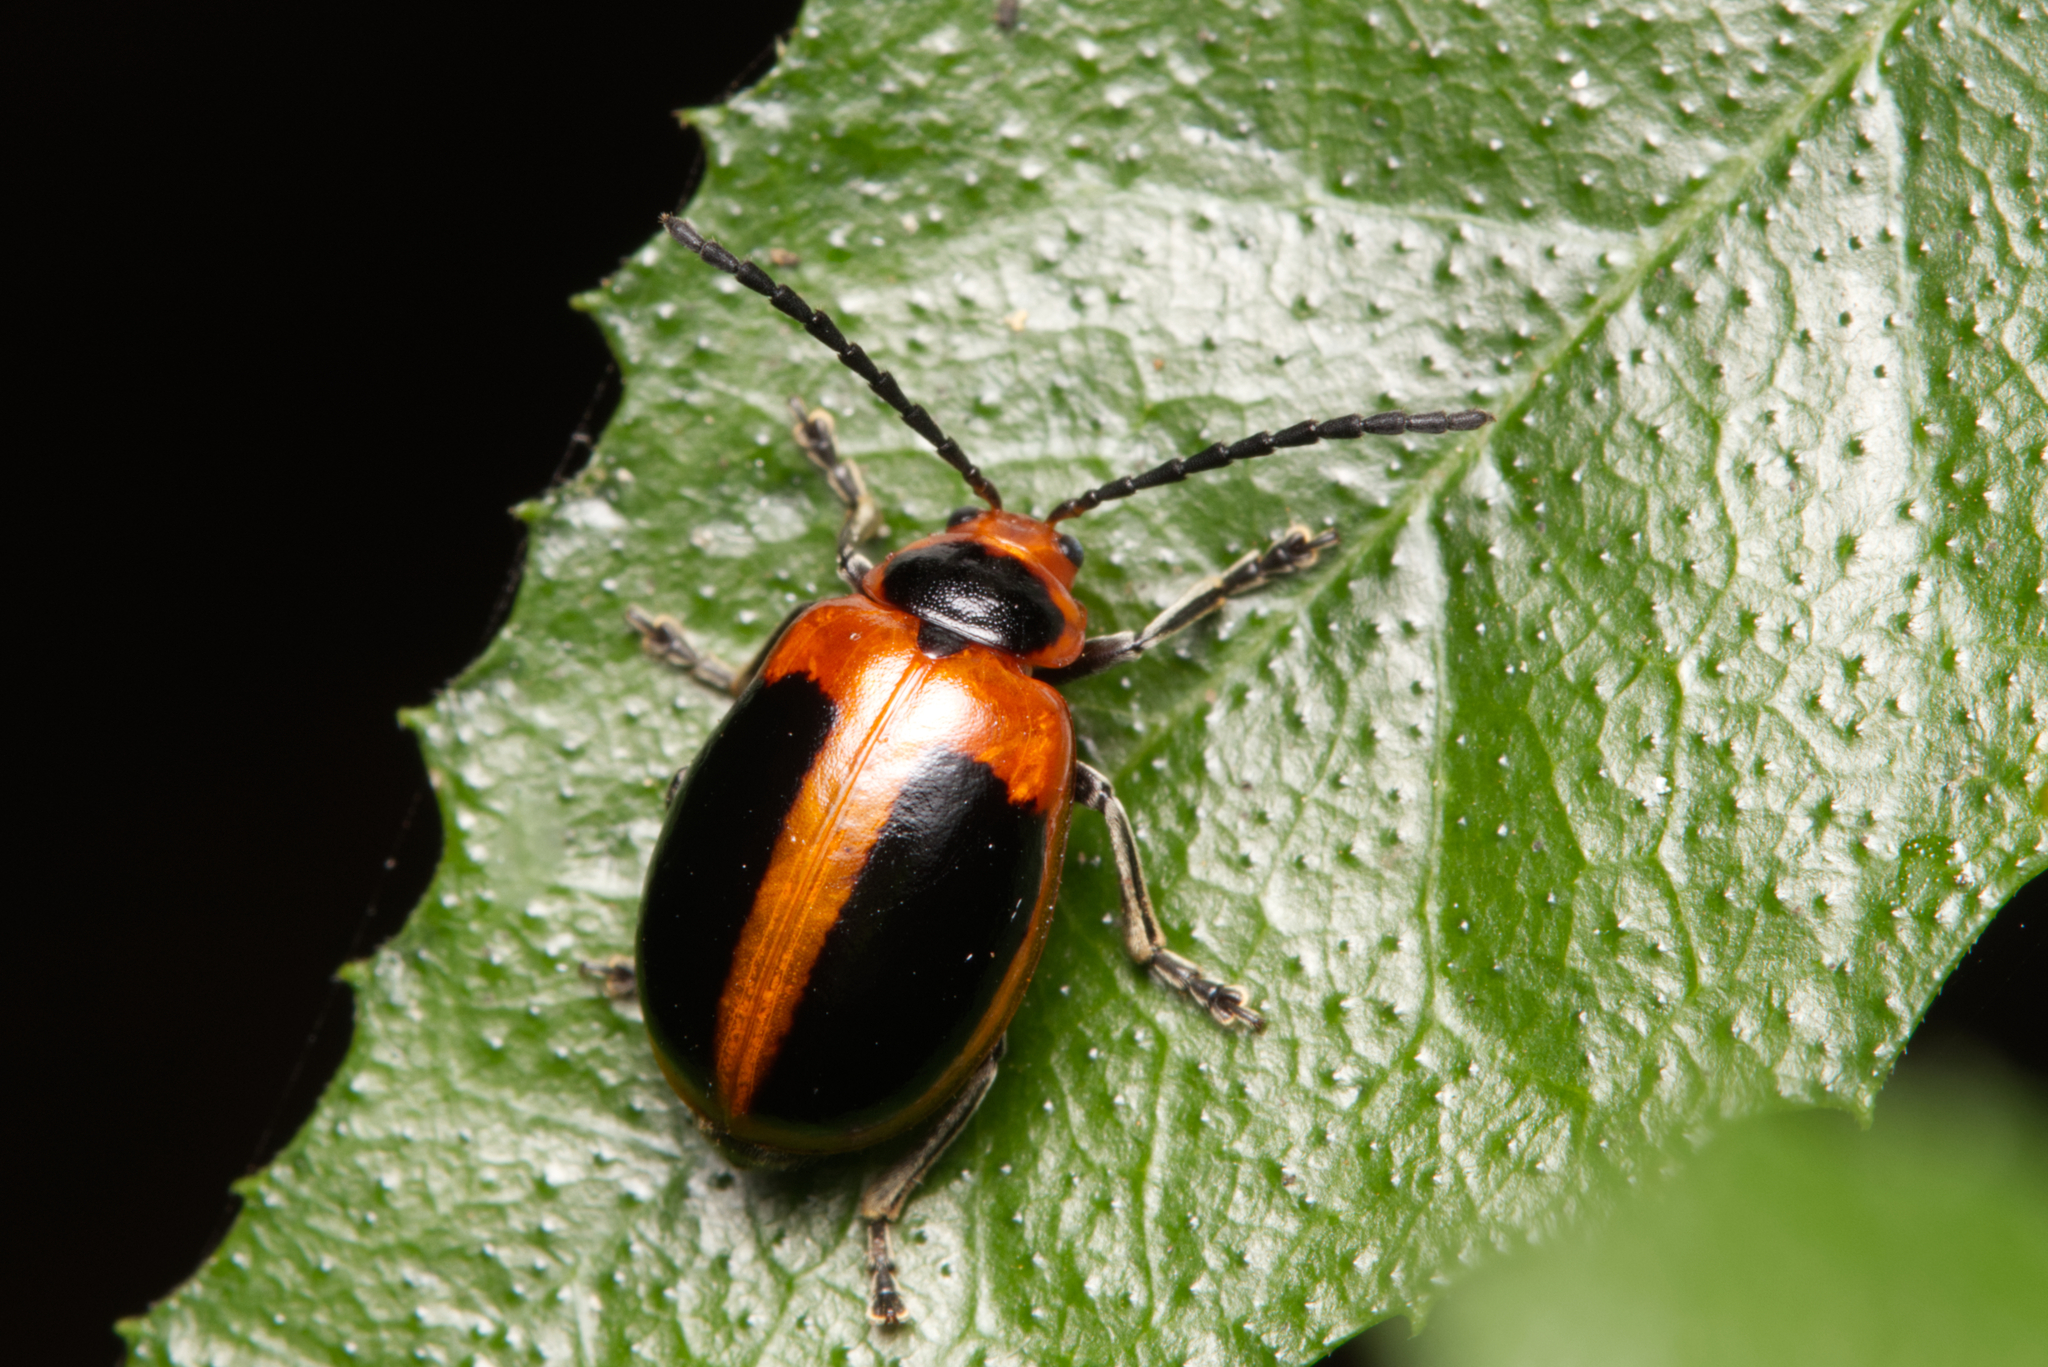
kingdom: Animalia
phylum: Arthropoda
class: Insecta
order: Coleoptera
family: Chrysomelidae
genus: Oides
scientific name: Oides
